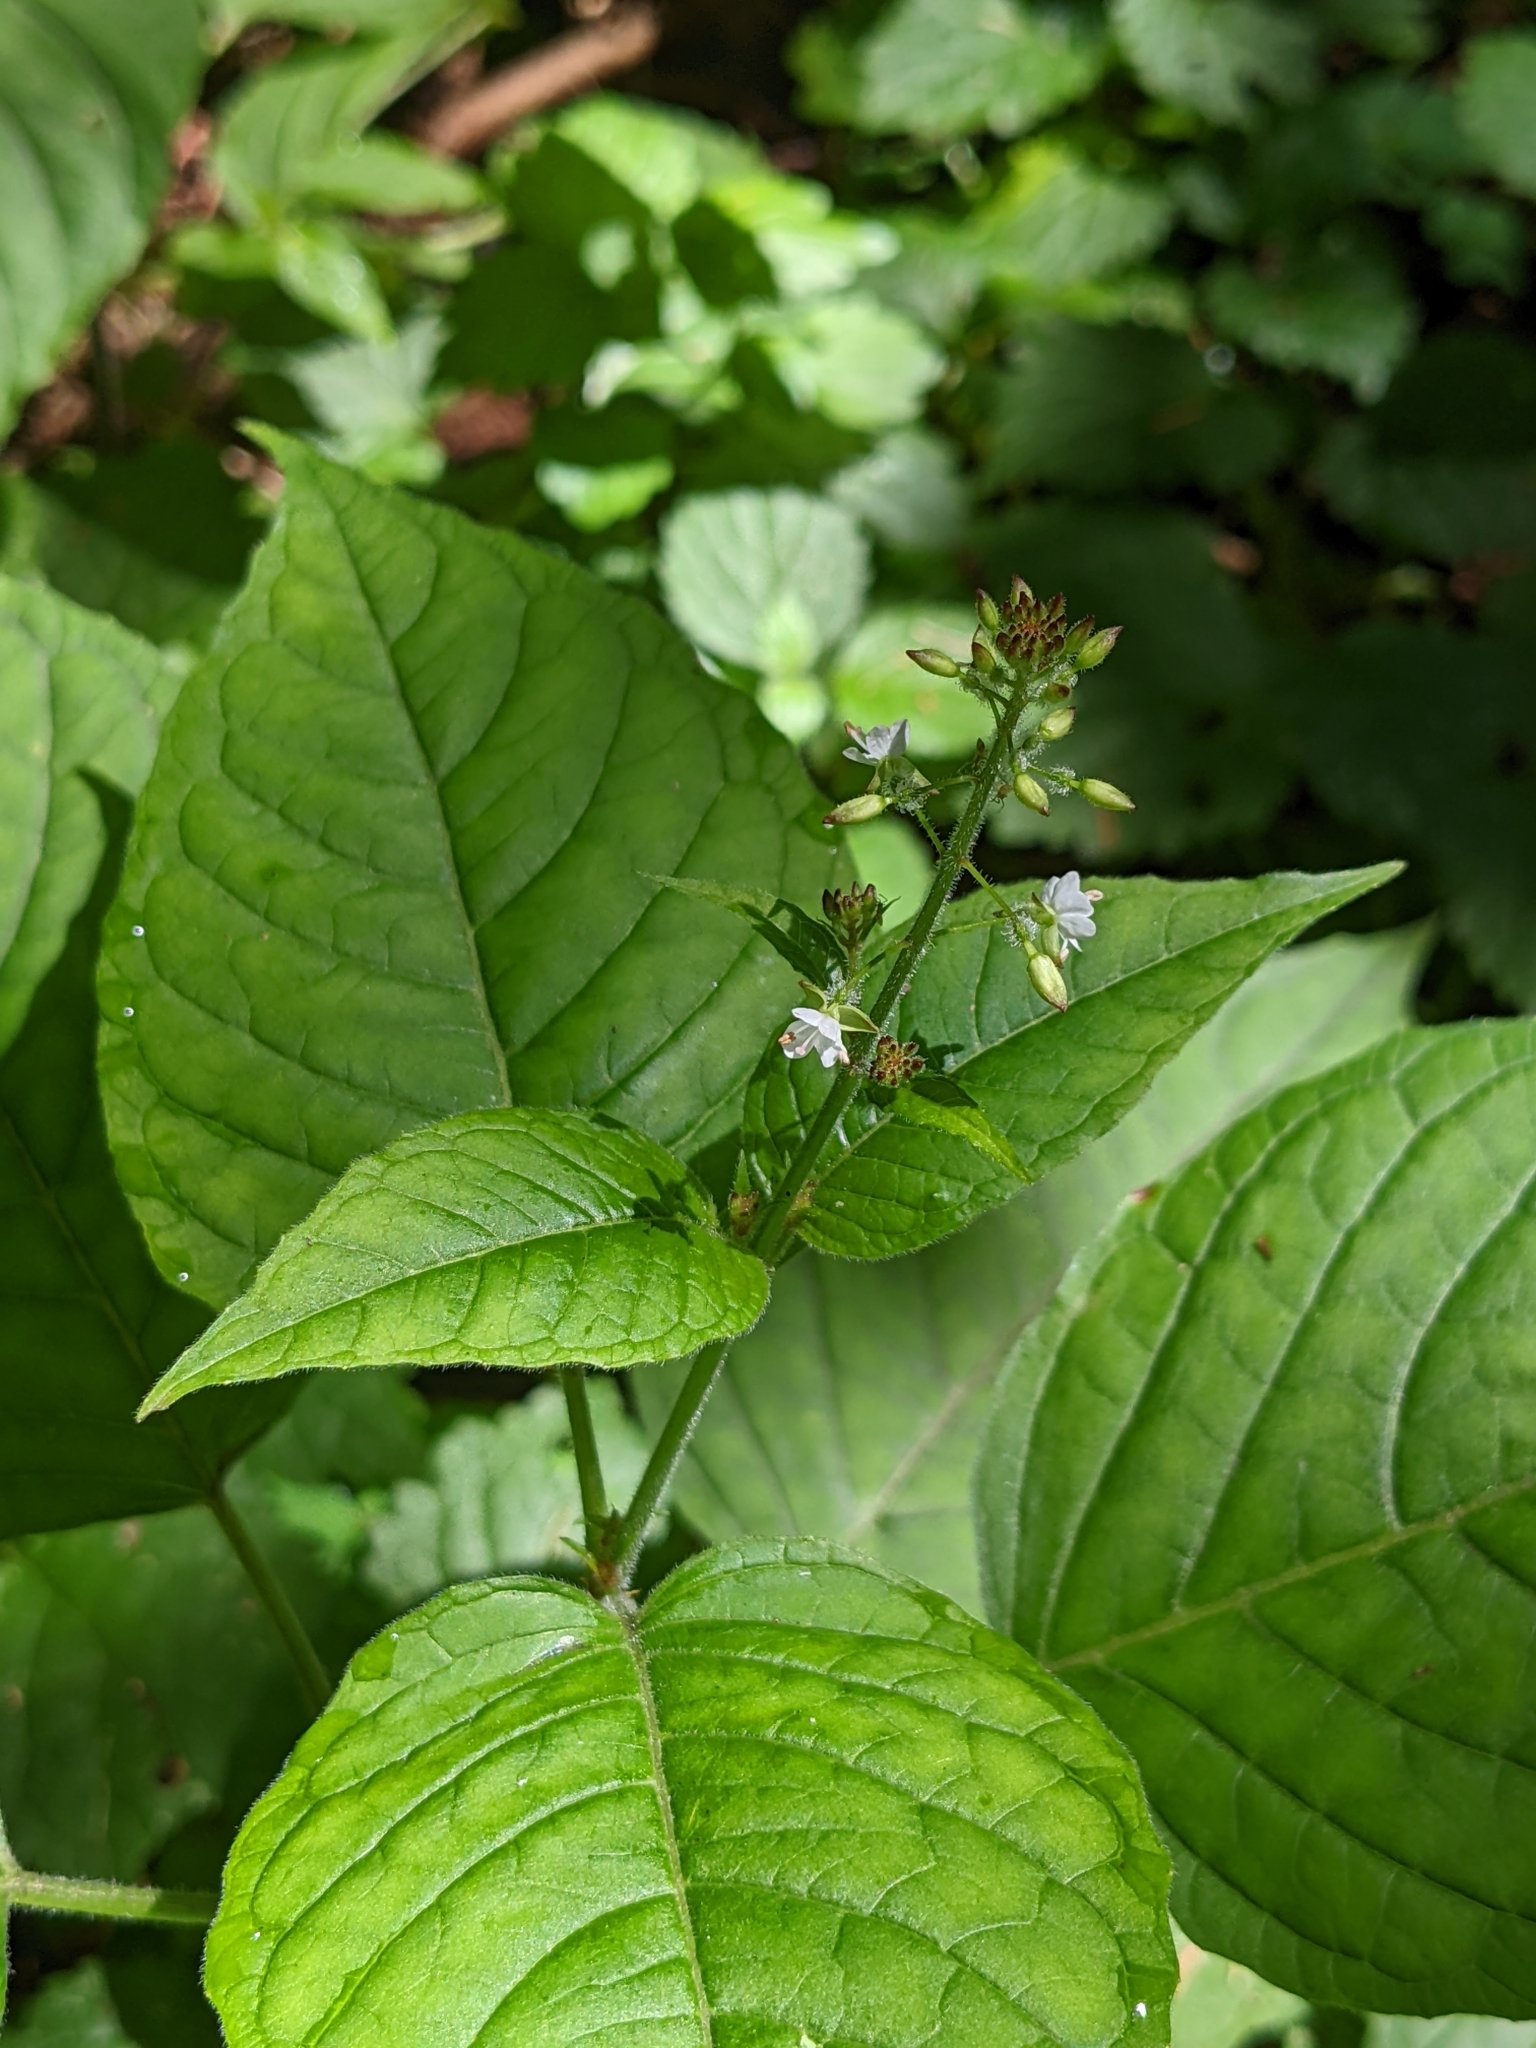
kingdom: Plantae
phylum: Tracheophyta
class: Magnoliopsida
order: Myrtales
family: Onagraceae
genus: Circaea
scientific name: Circaea lutetiana
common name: Enchanter's-nightshade
